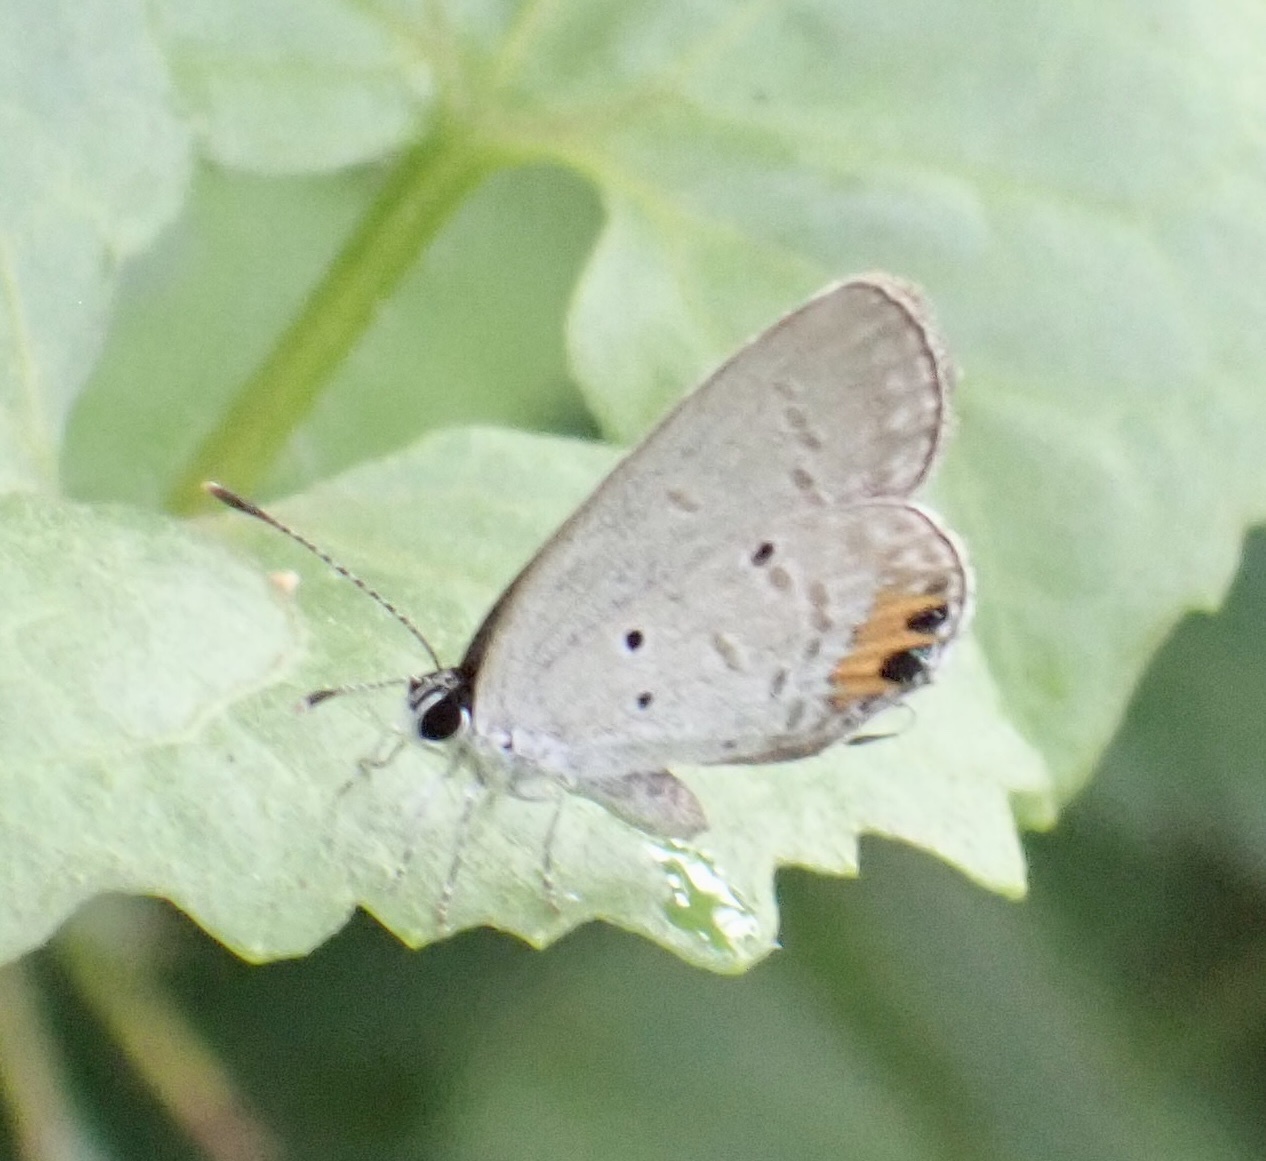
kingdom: Animalia
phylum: Arthropoda
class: Insecta
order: Lepidoptera
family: Lycaenidae
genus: Everes
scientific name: Everes lacturnus
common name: Orange-tipped pea-blue
